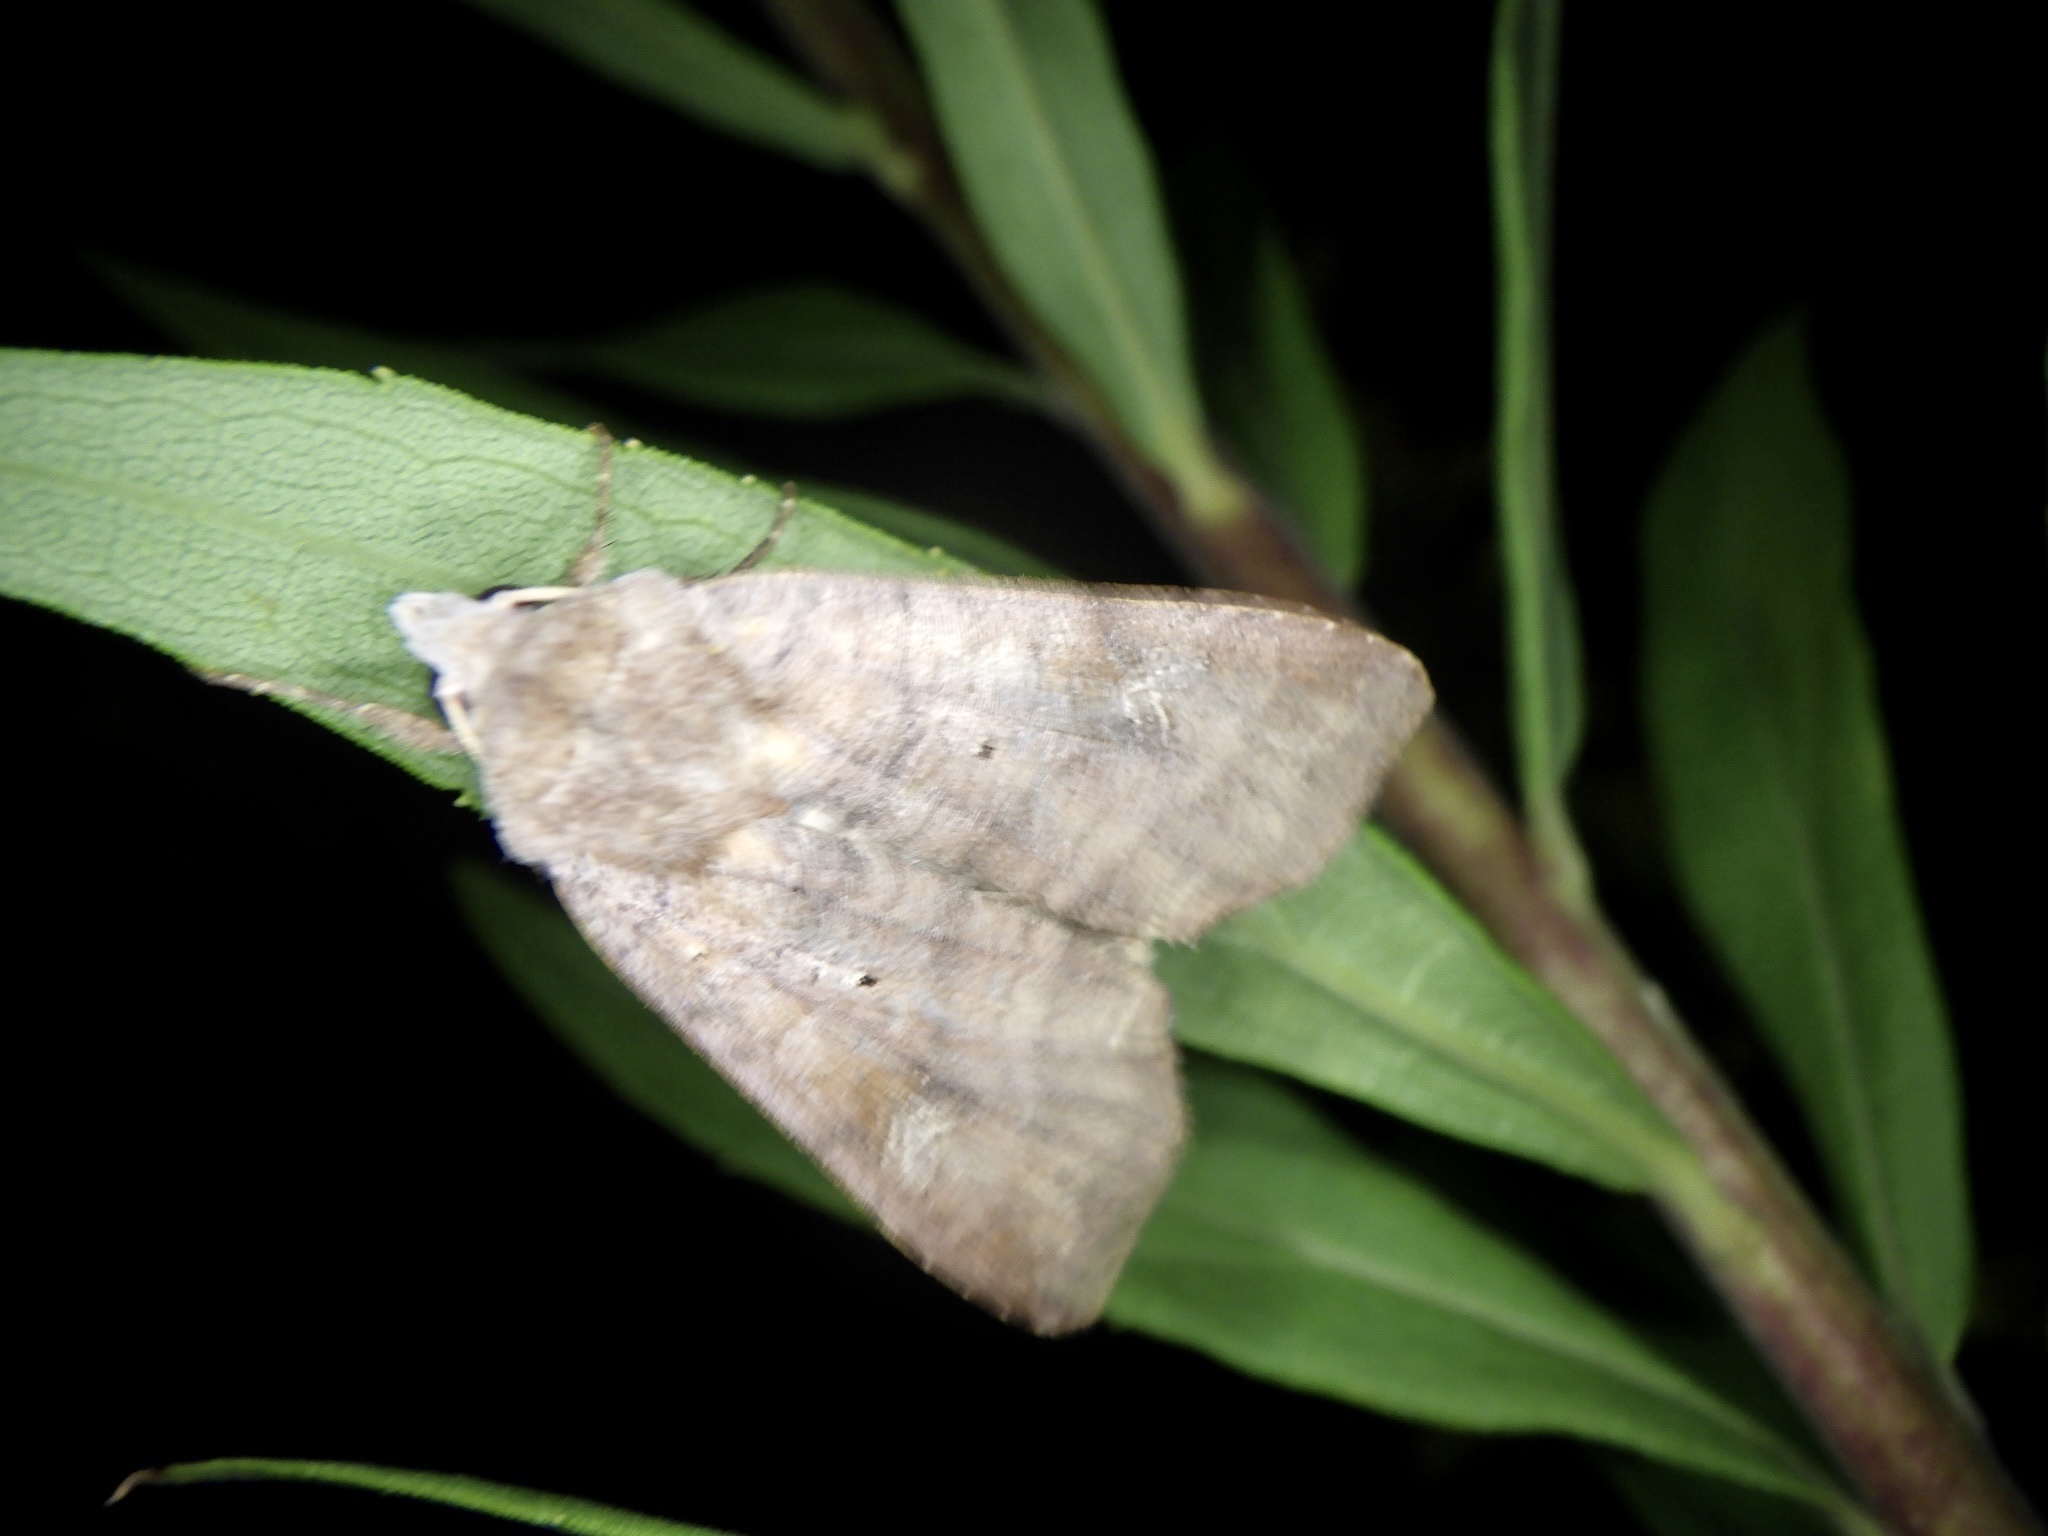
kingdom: Animalia
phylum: Arthropoda
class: Insecta
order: Lepidoptera
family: Noctuidae
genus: Diarsia
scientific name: Diarsia canescens
